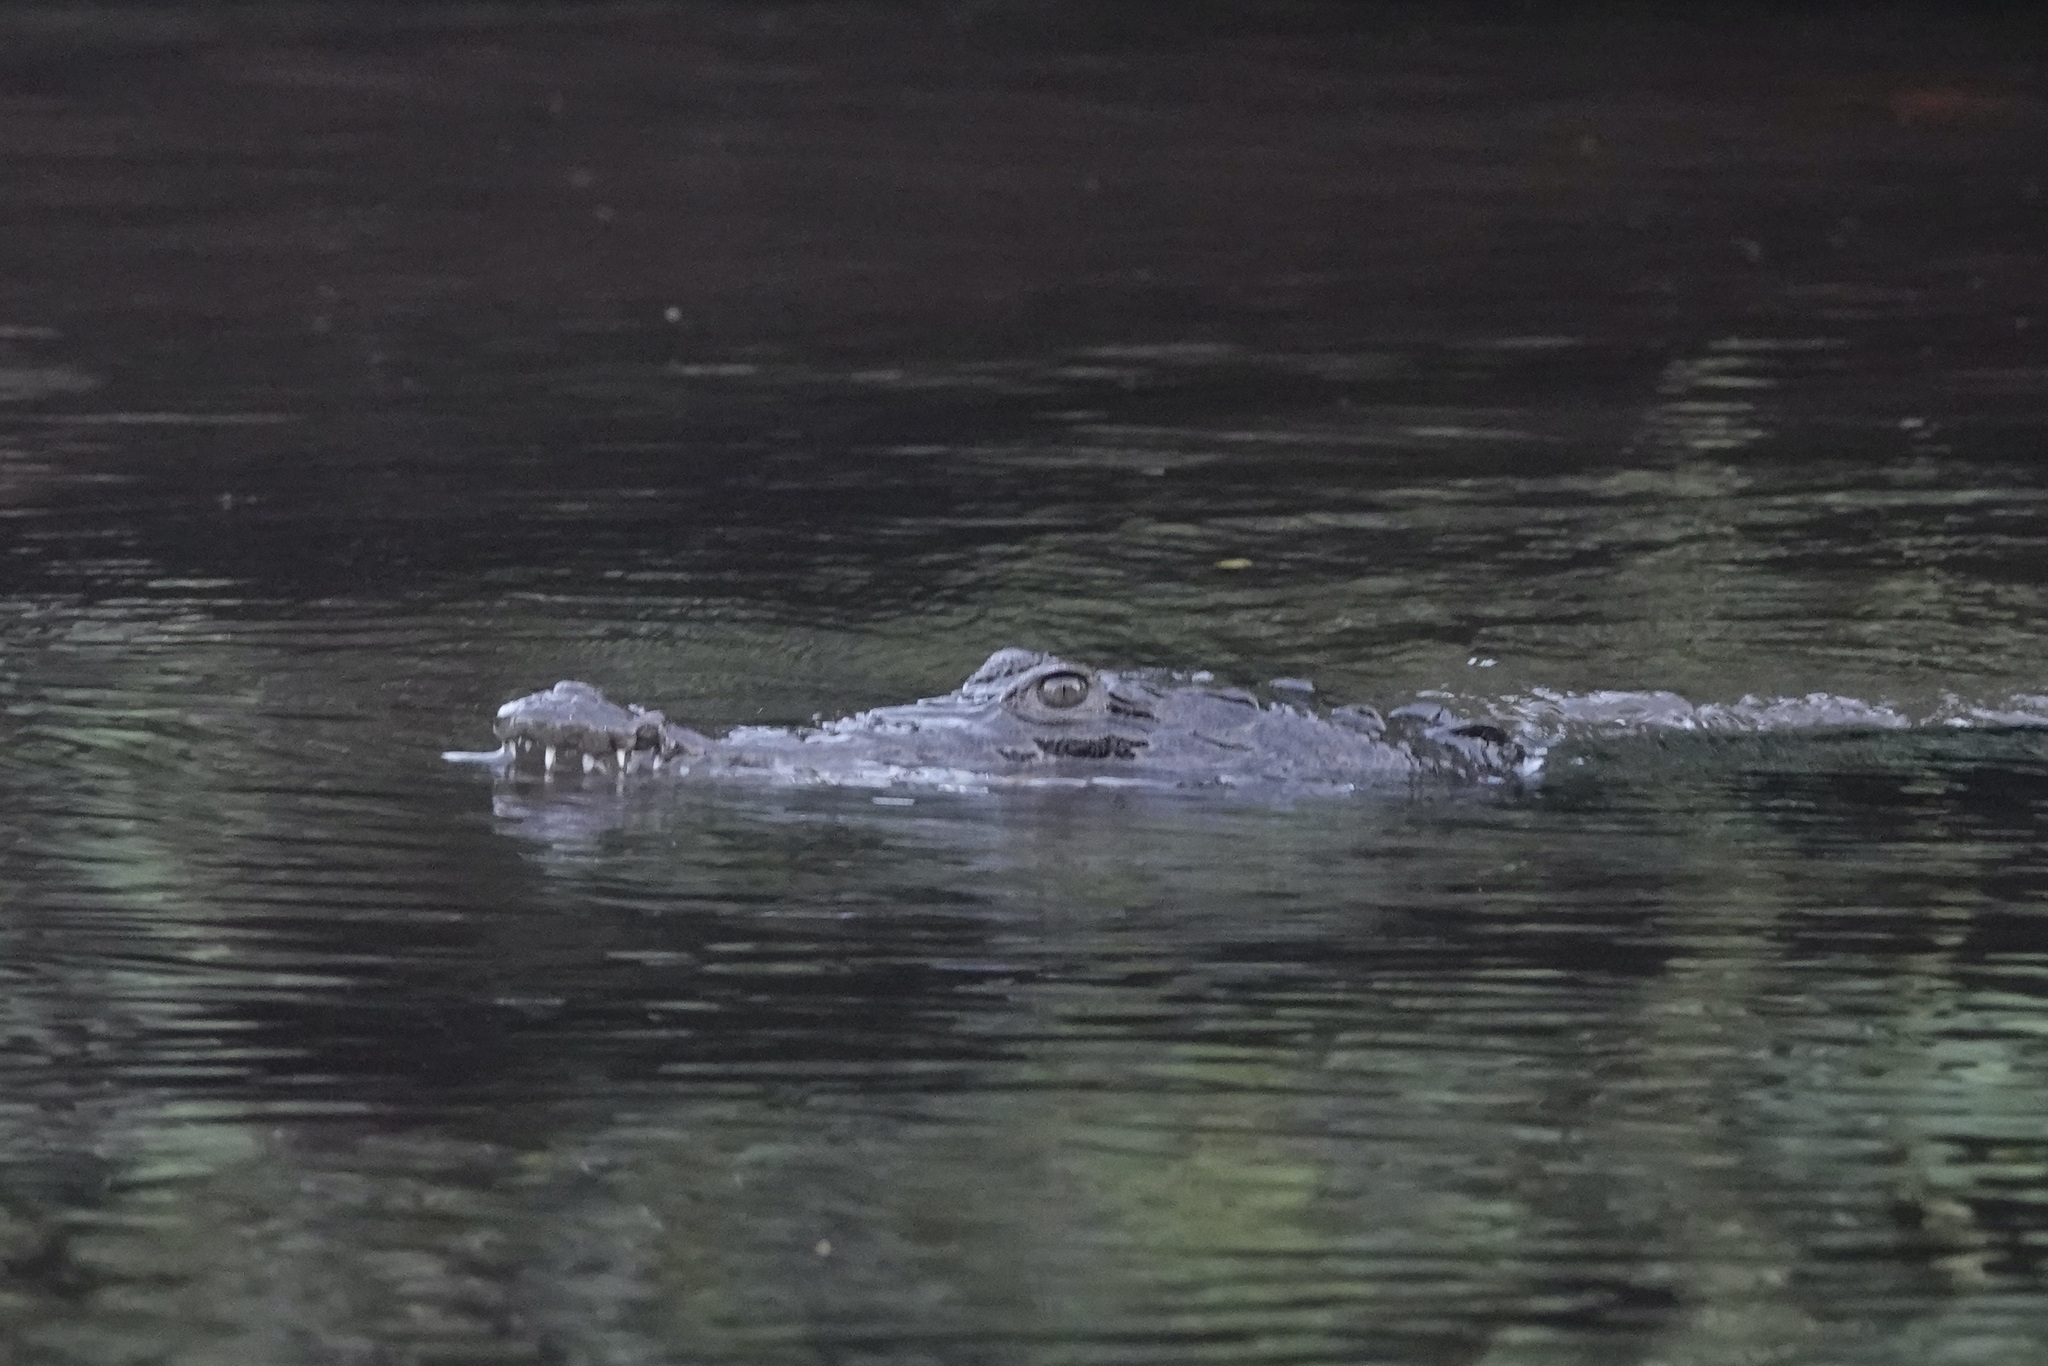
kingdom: Animalia
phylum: Chordata
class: Crocodylia
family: Crocodylidae
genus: Crocodylus
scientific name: Crocodylus acutus
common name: American crocodile
